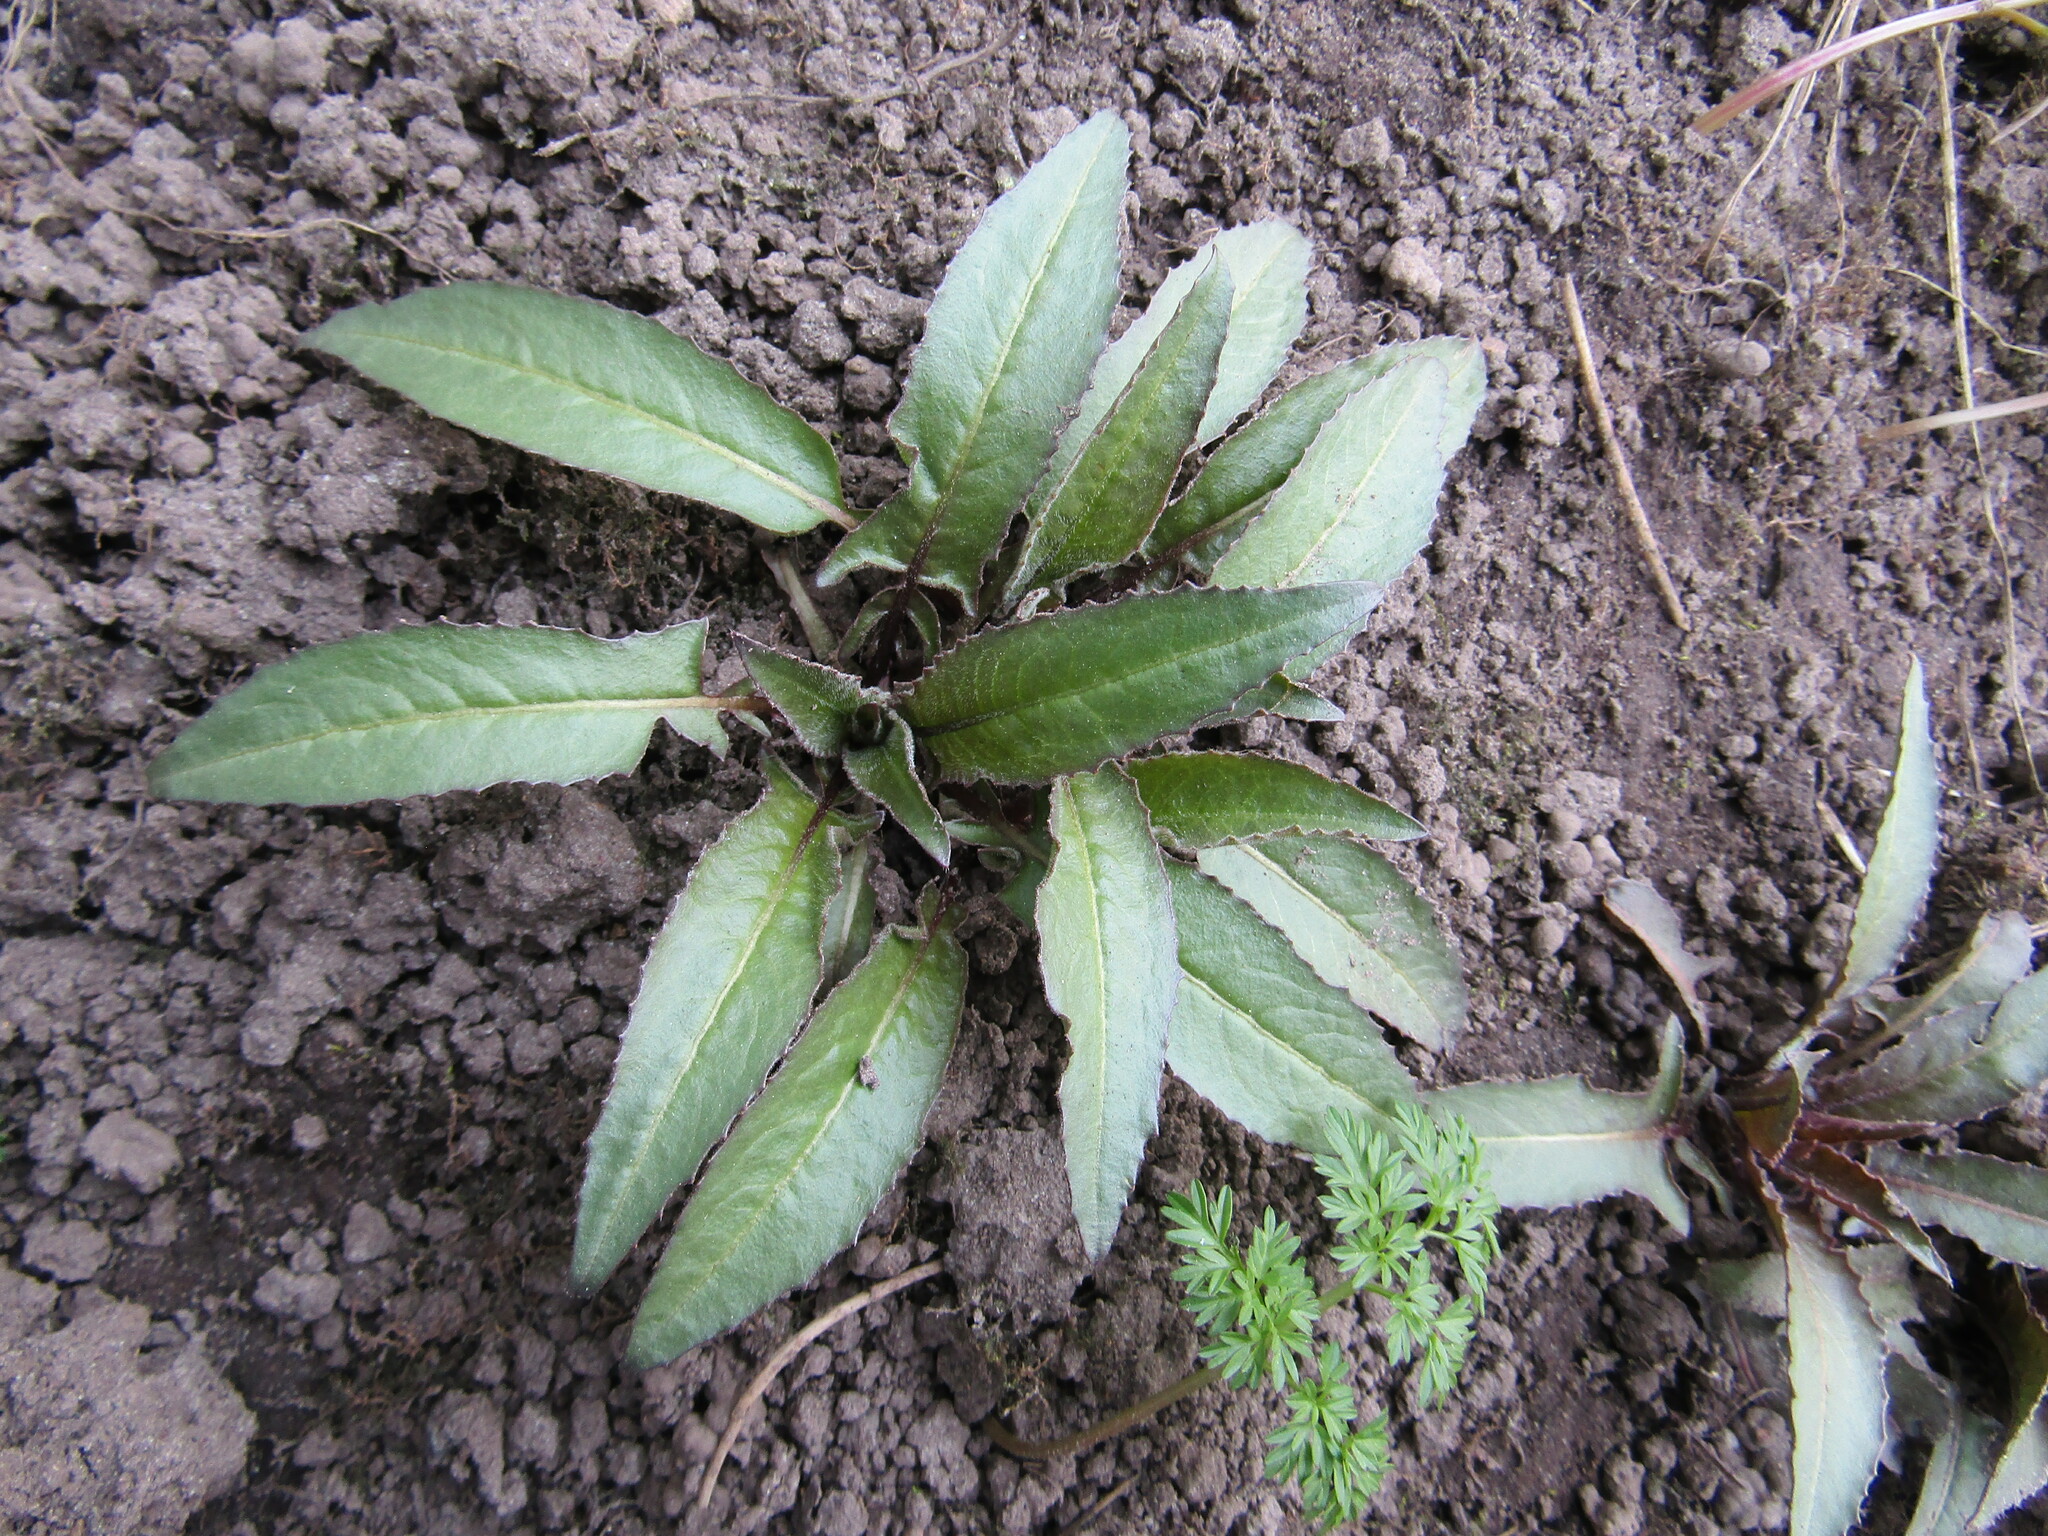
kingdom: Plantae
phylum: Tracheophyta
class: Magnoliopsida
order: Brassicales
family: Brassicaceae
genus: Bunias
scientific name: Bunias orientalis
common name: Warty-cabbage
